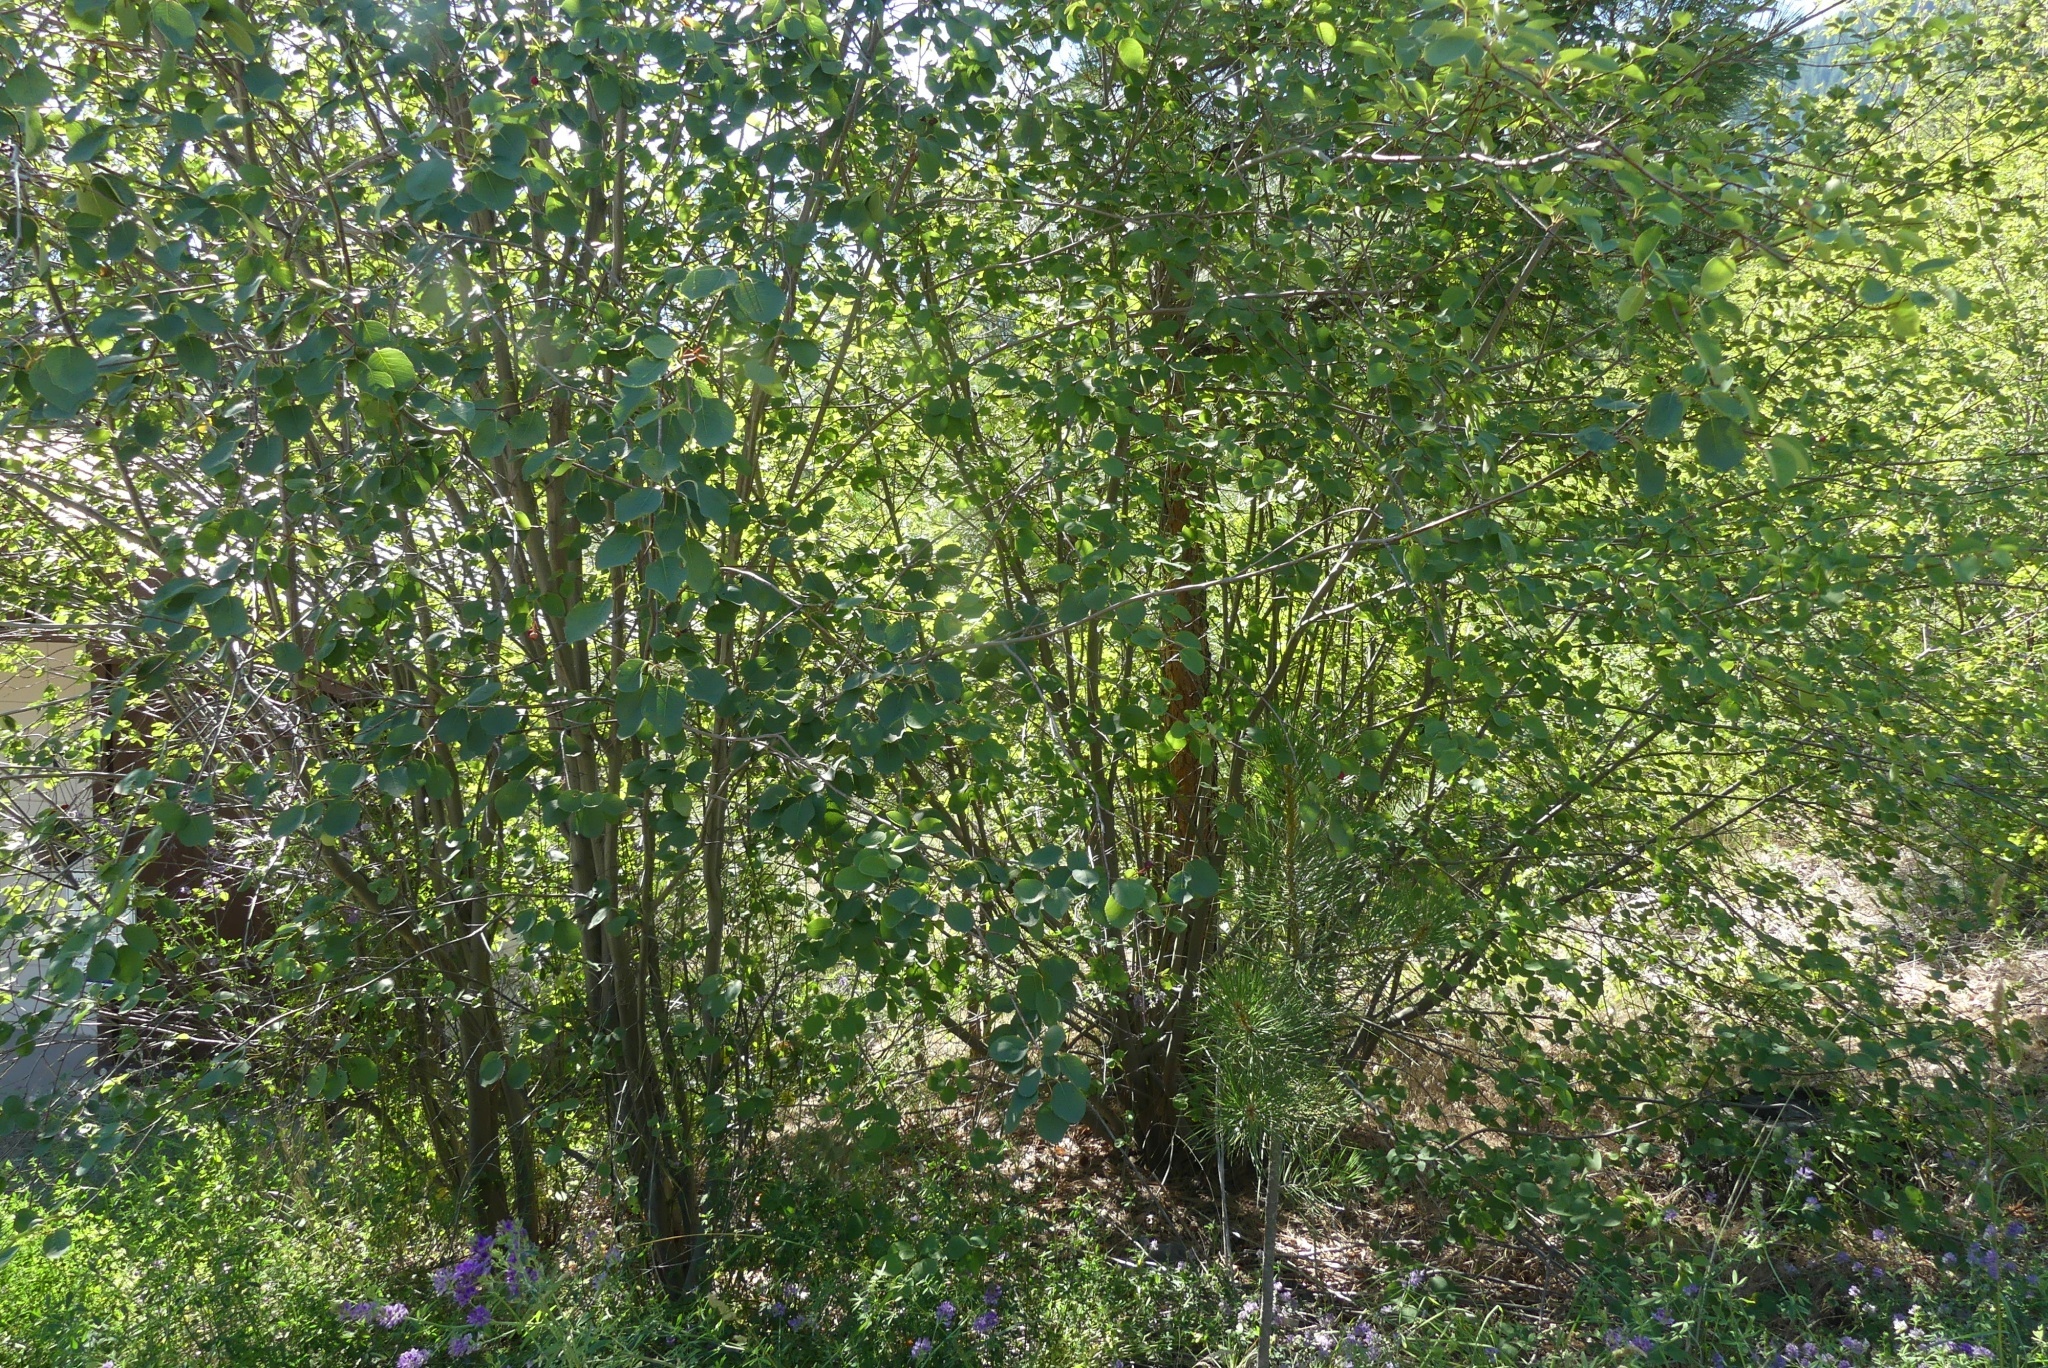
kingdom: Plantae
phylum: Tracheophyta
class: Magnoliopsida
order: Rosales
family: Rosaceae
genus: Amelanchier
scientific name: Amelanchier alnifolia
